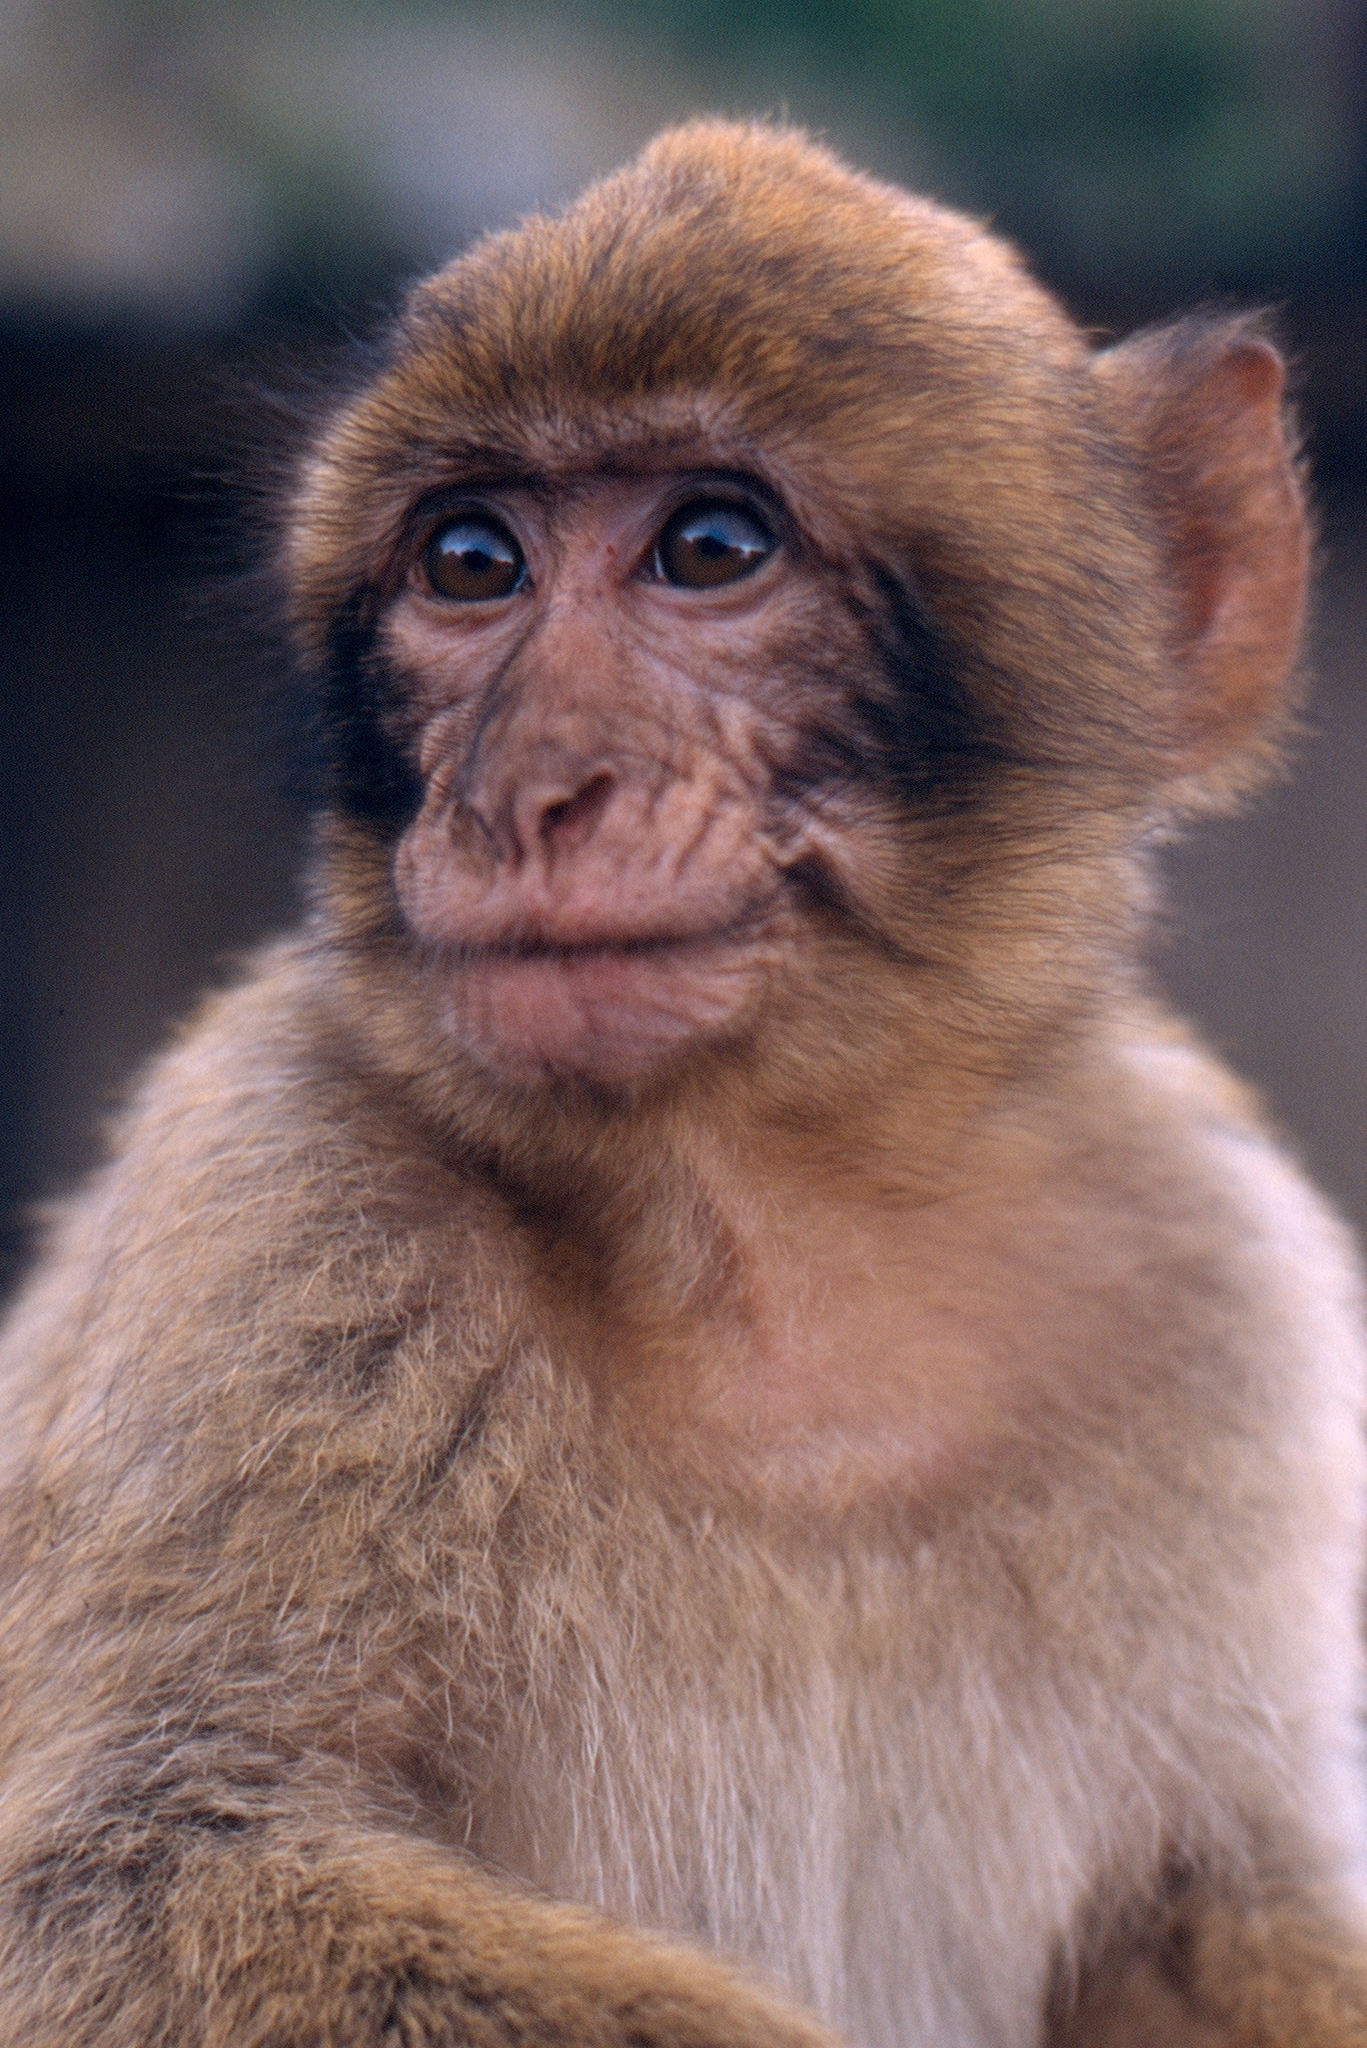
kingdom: Animalia
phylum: Chordata
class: Mammalia
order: Primates
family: Cercopithecidae
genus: Macaca
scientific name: Macaca sylvanus
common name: Barbary macaque
